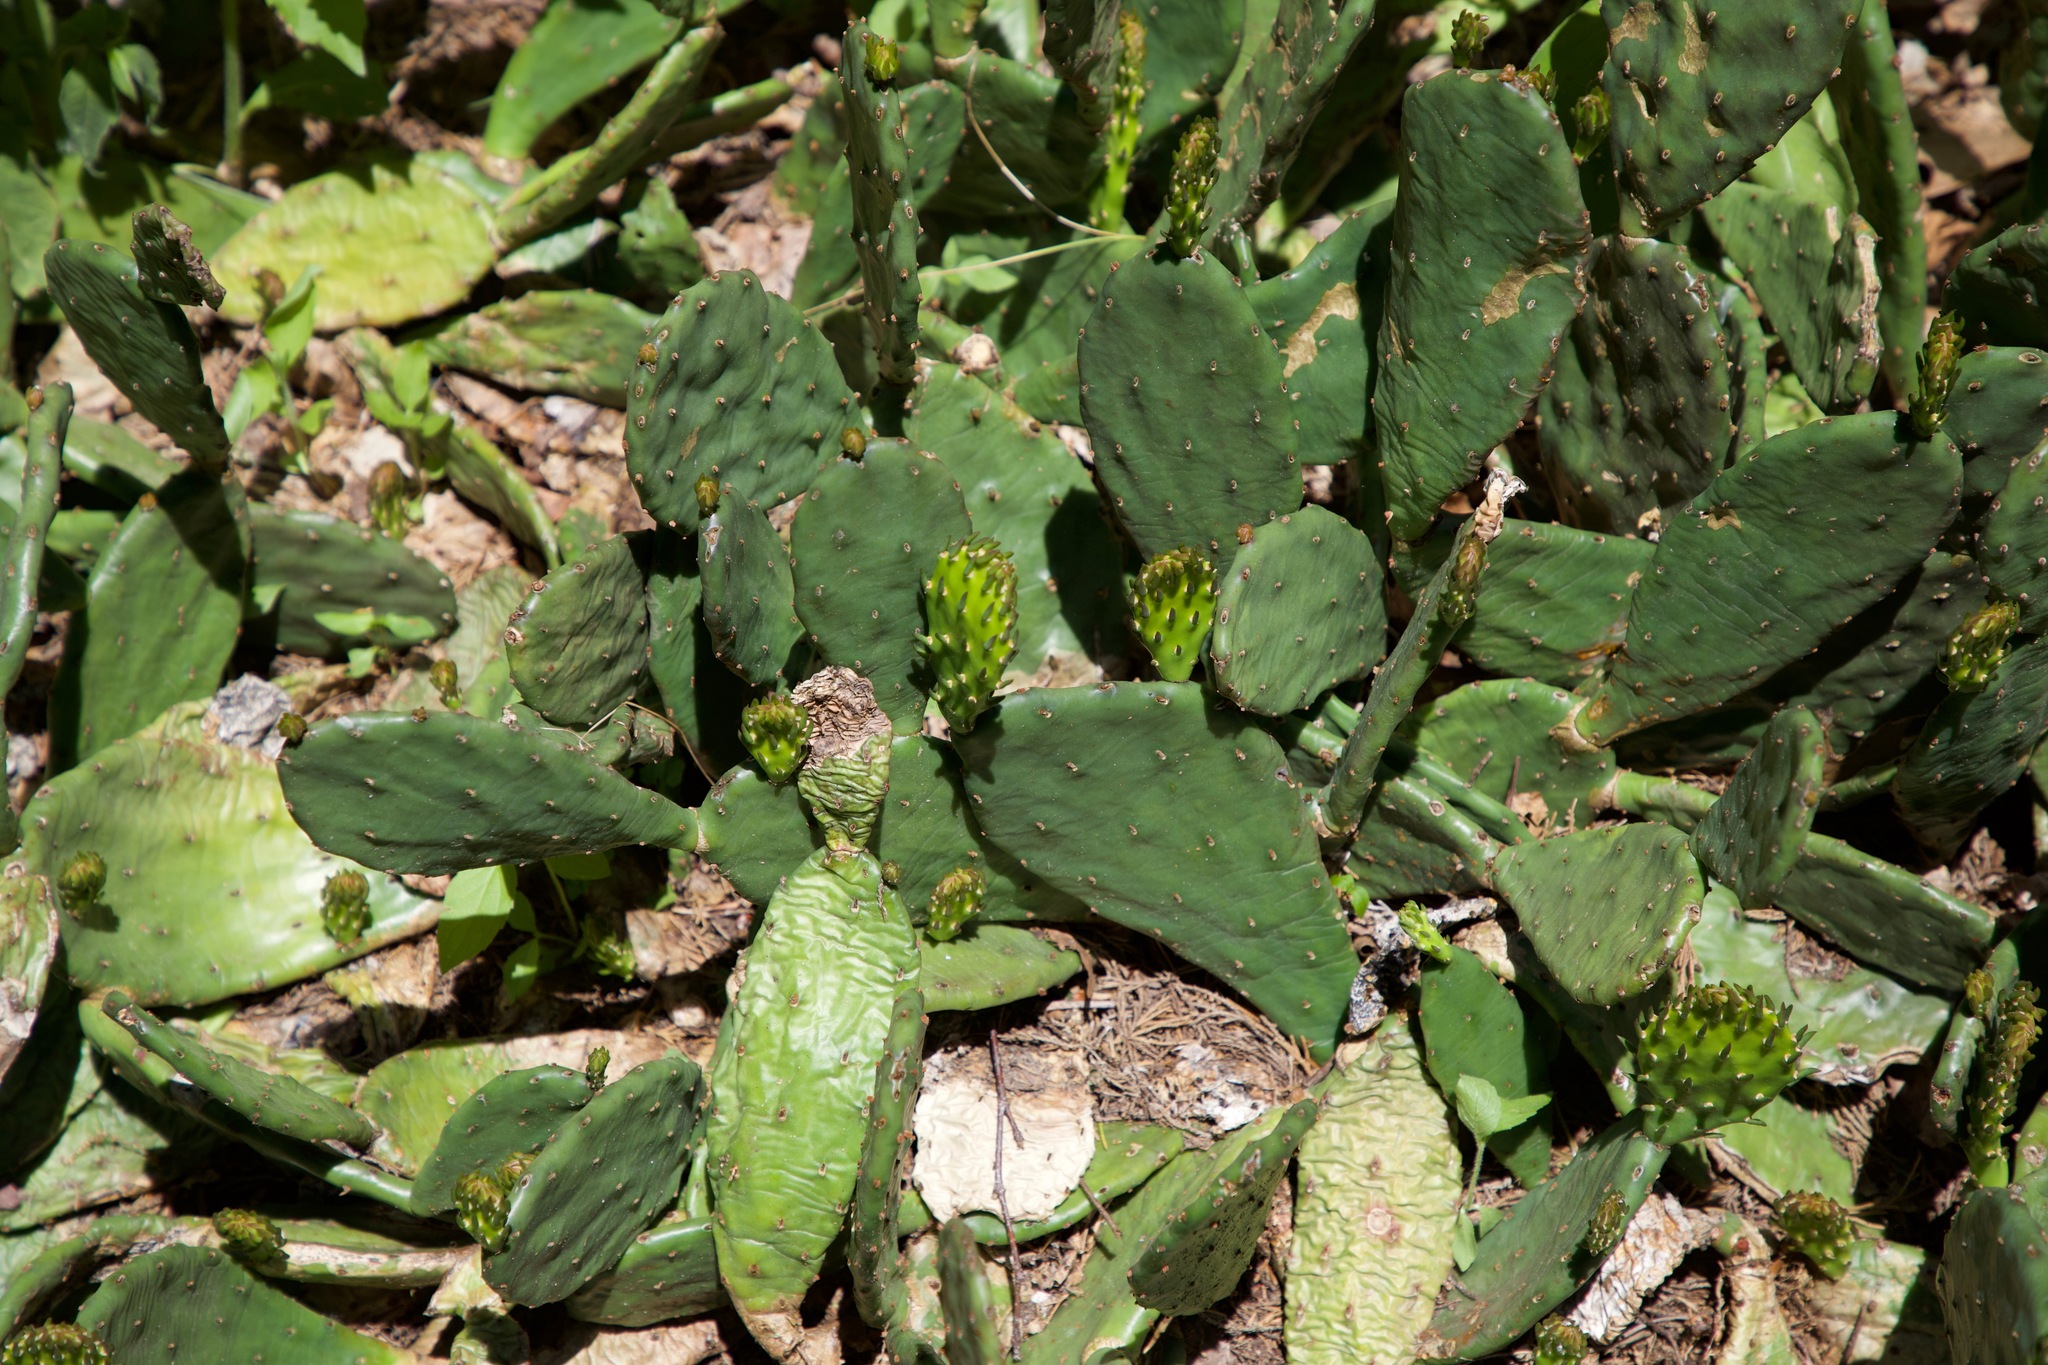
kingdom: Plantae
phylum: Tracheophyta
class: Magnoliopsida
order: Caryophyllales
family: Cactaceae
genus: Opuntia
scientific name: Opuntia humifusa
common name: Eastern prickly-pear
